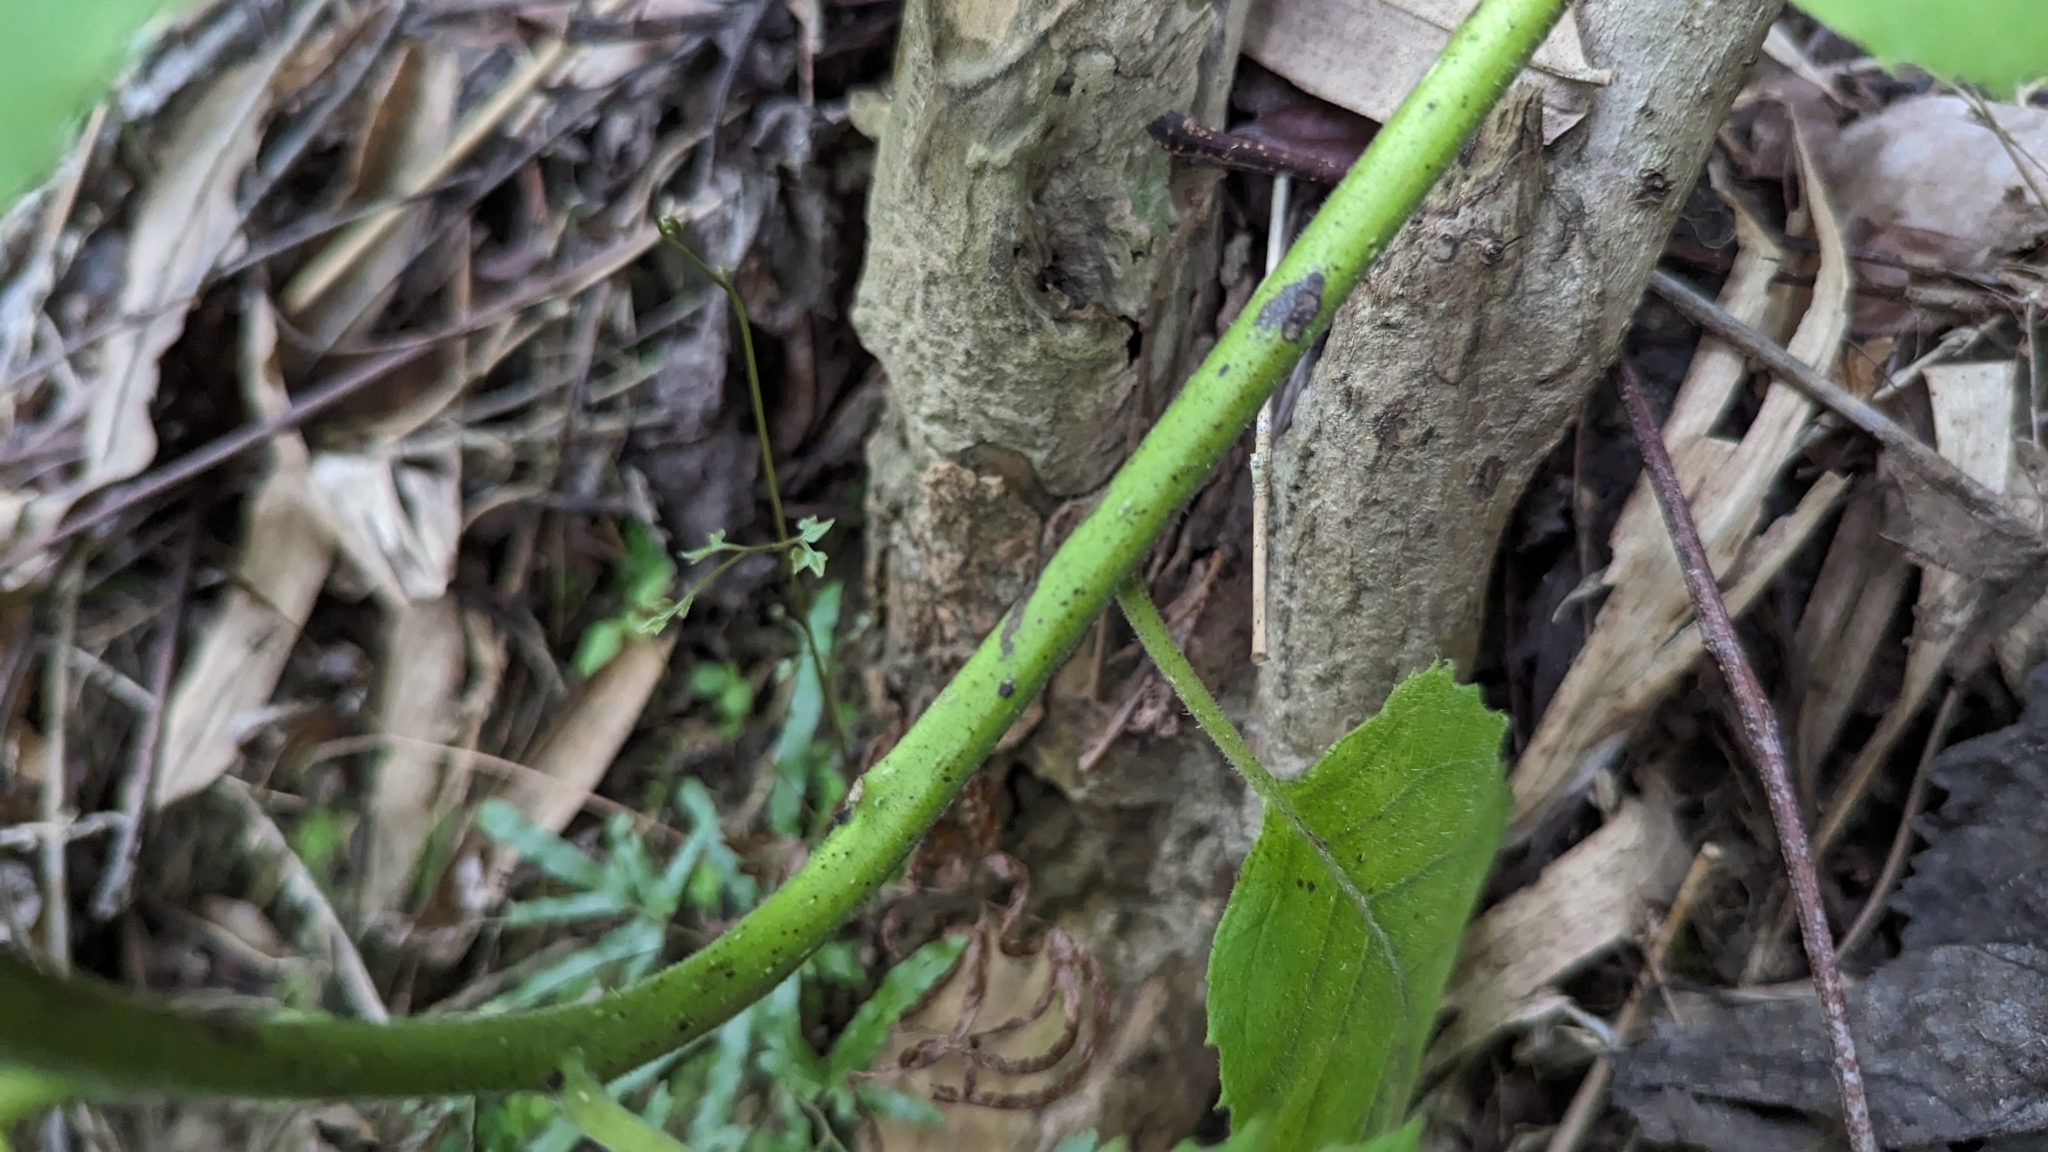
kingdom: Plantae
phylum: Tracheophyta
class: Magnoliopsida
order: Boraginales
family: Ehretiaceae
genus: Ehretia
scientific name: Ehretia dicksonii
